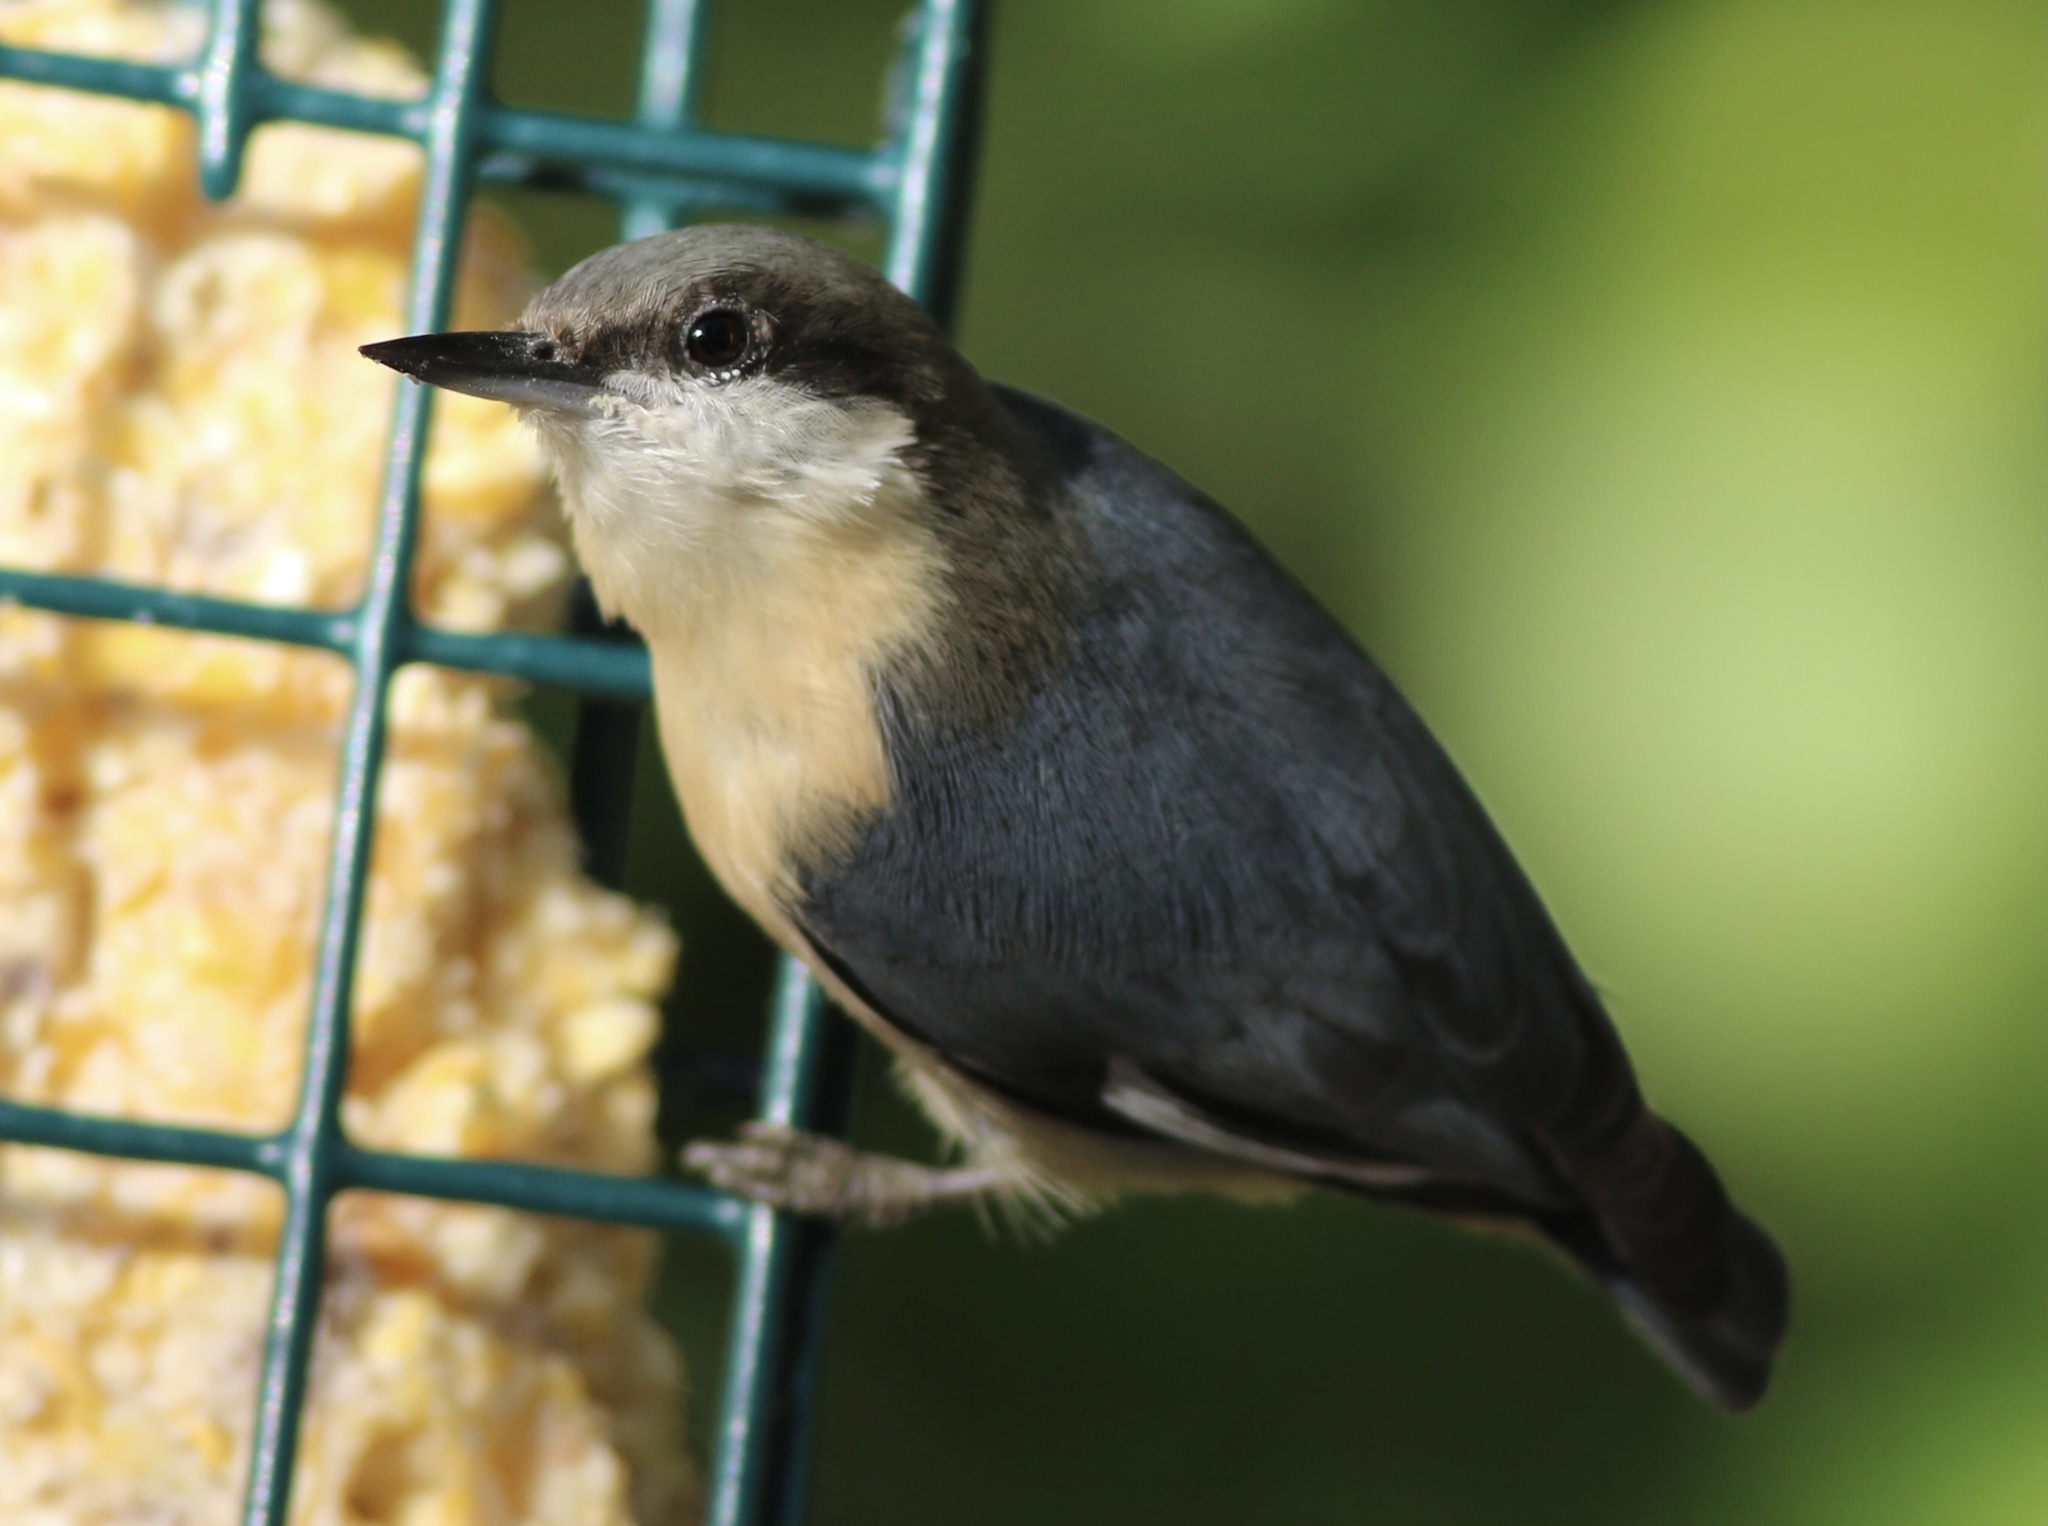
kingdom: Animalia
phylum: Chordata
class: Aves
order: Passeriformes
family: Sittidae
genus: Sitta
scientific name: Sitta pygmaea
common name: Pygmy nuthatch
